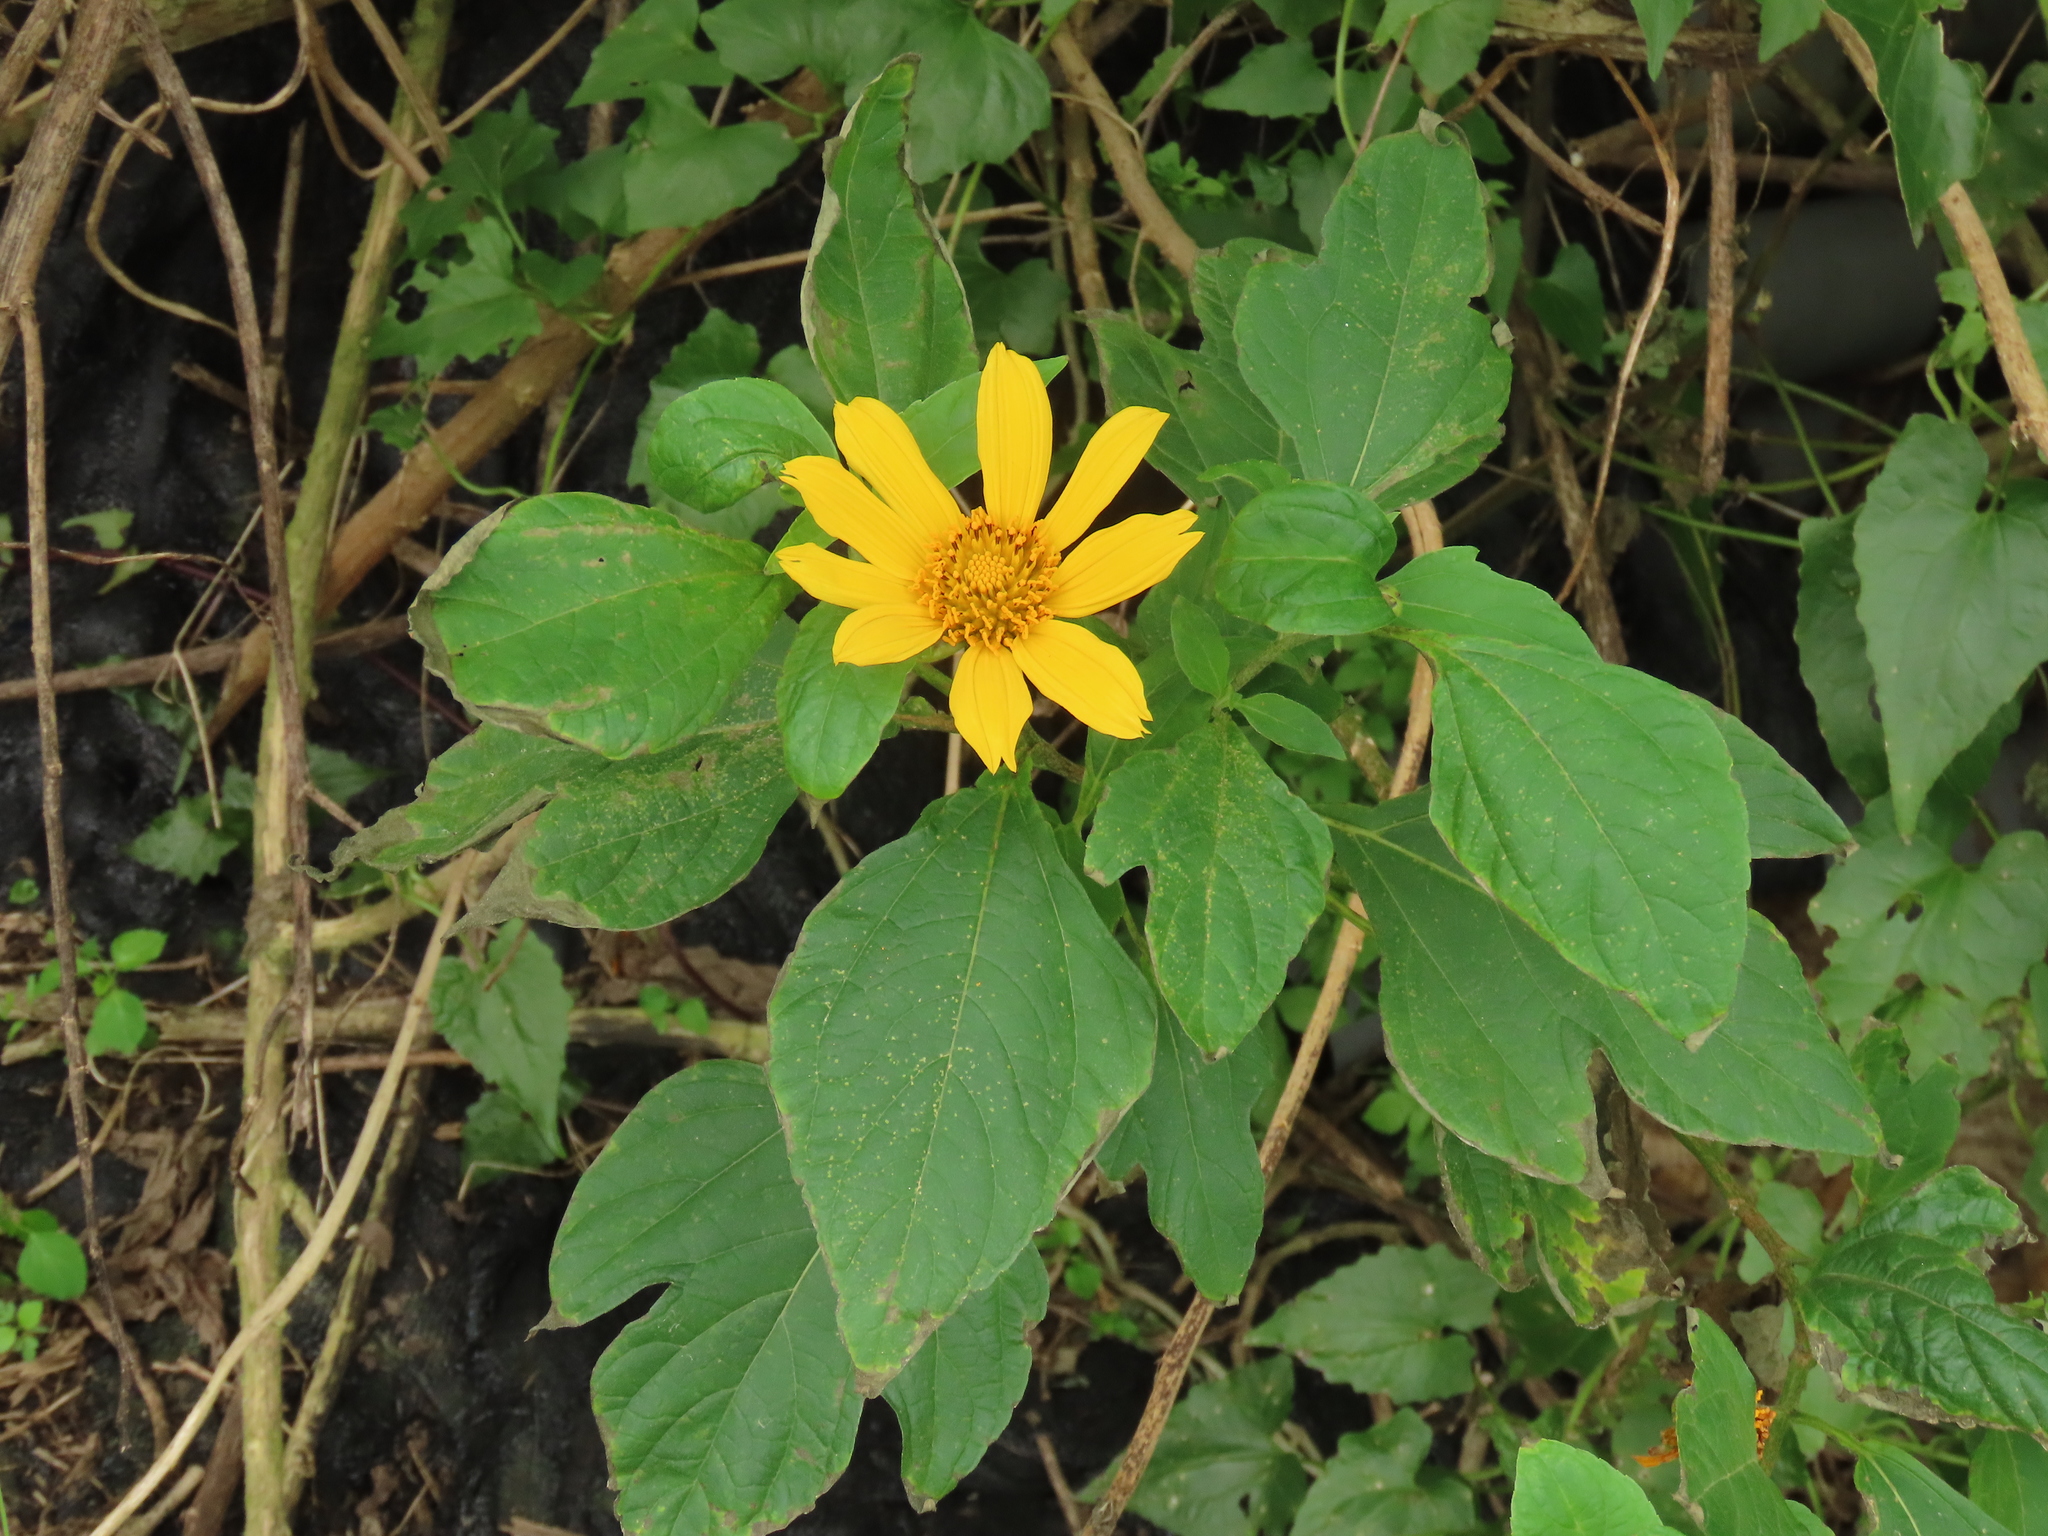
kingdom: Plantae
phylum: Tracheophyta
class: Magnoliopsida
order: Asterales
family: Asteraceae
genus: Tithonia
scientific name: Tithonia diversifolia
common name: Tree marigold
